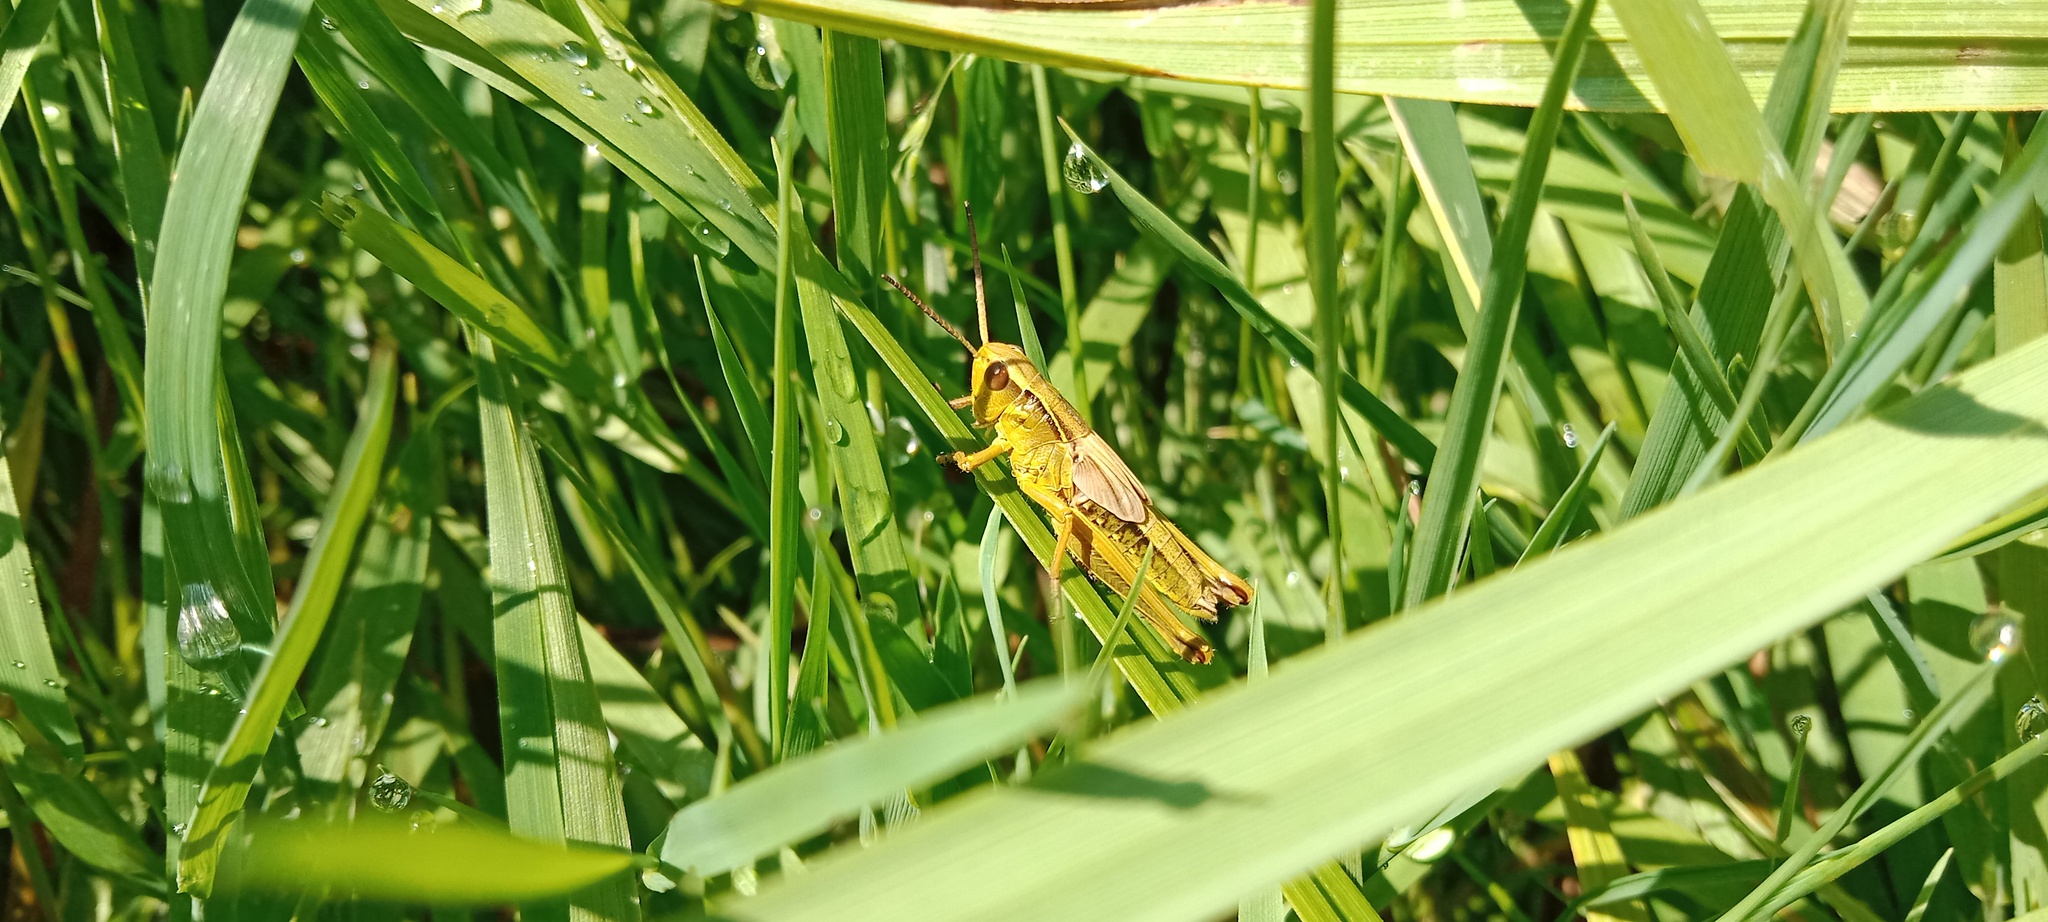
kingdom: Animalia
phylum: Arthropoda
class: Insecta
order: Orthoptera
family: Acrididae
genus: Stethophyma
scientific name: Stethophyma grossum
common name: Large marsh grasshopper
